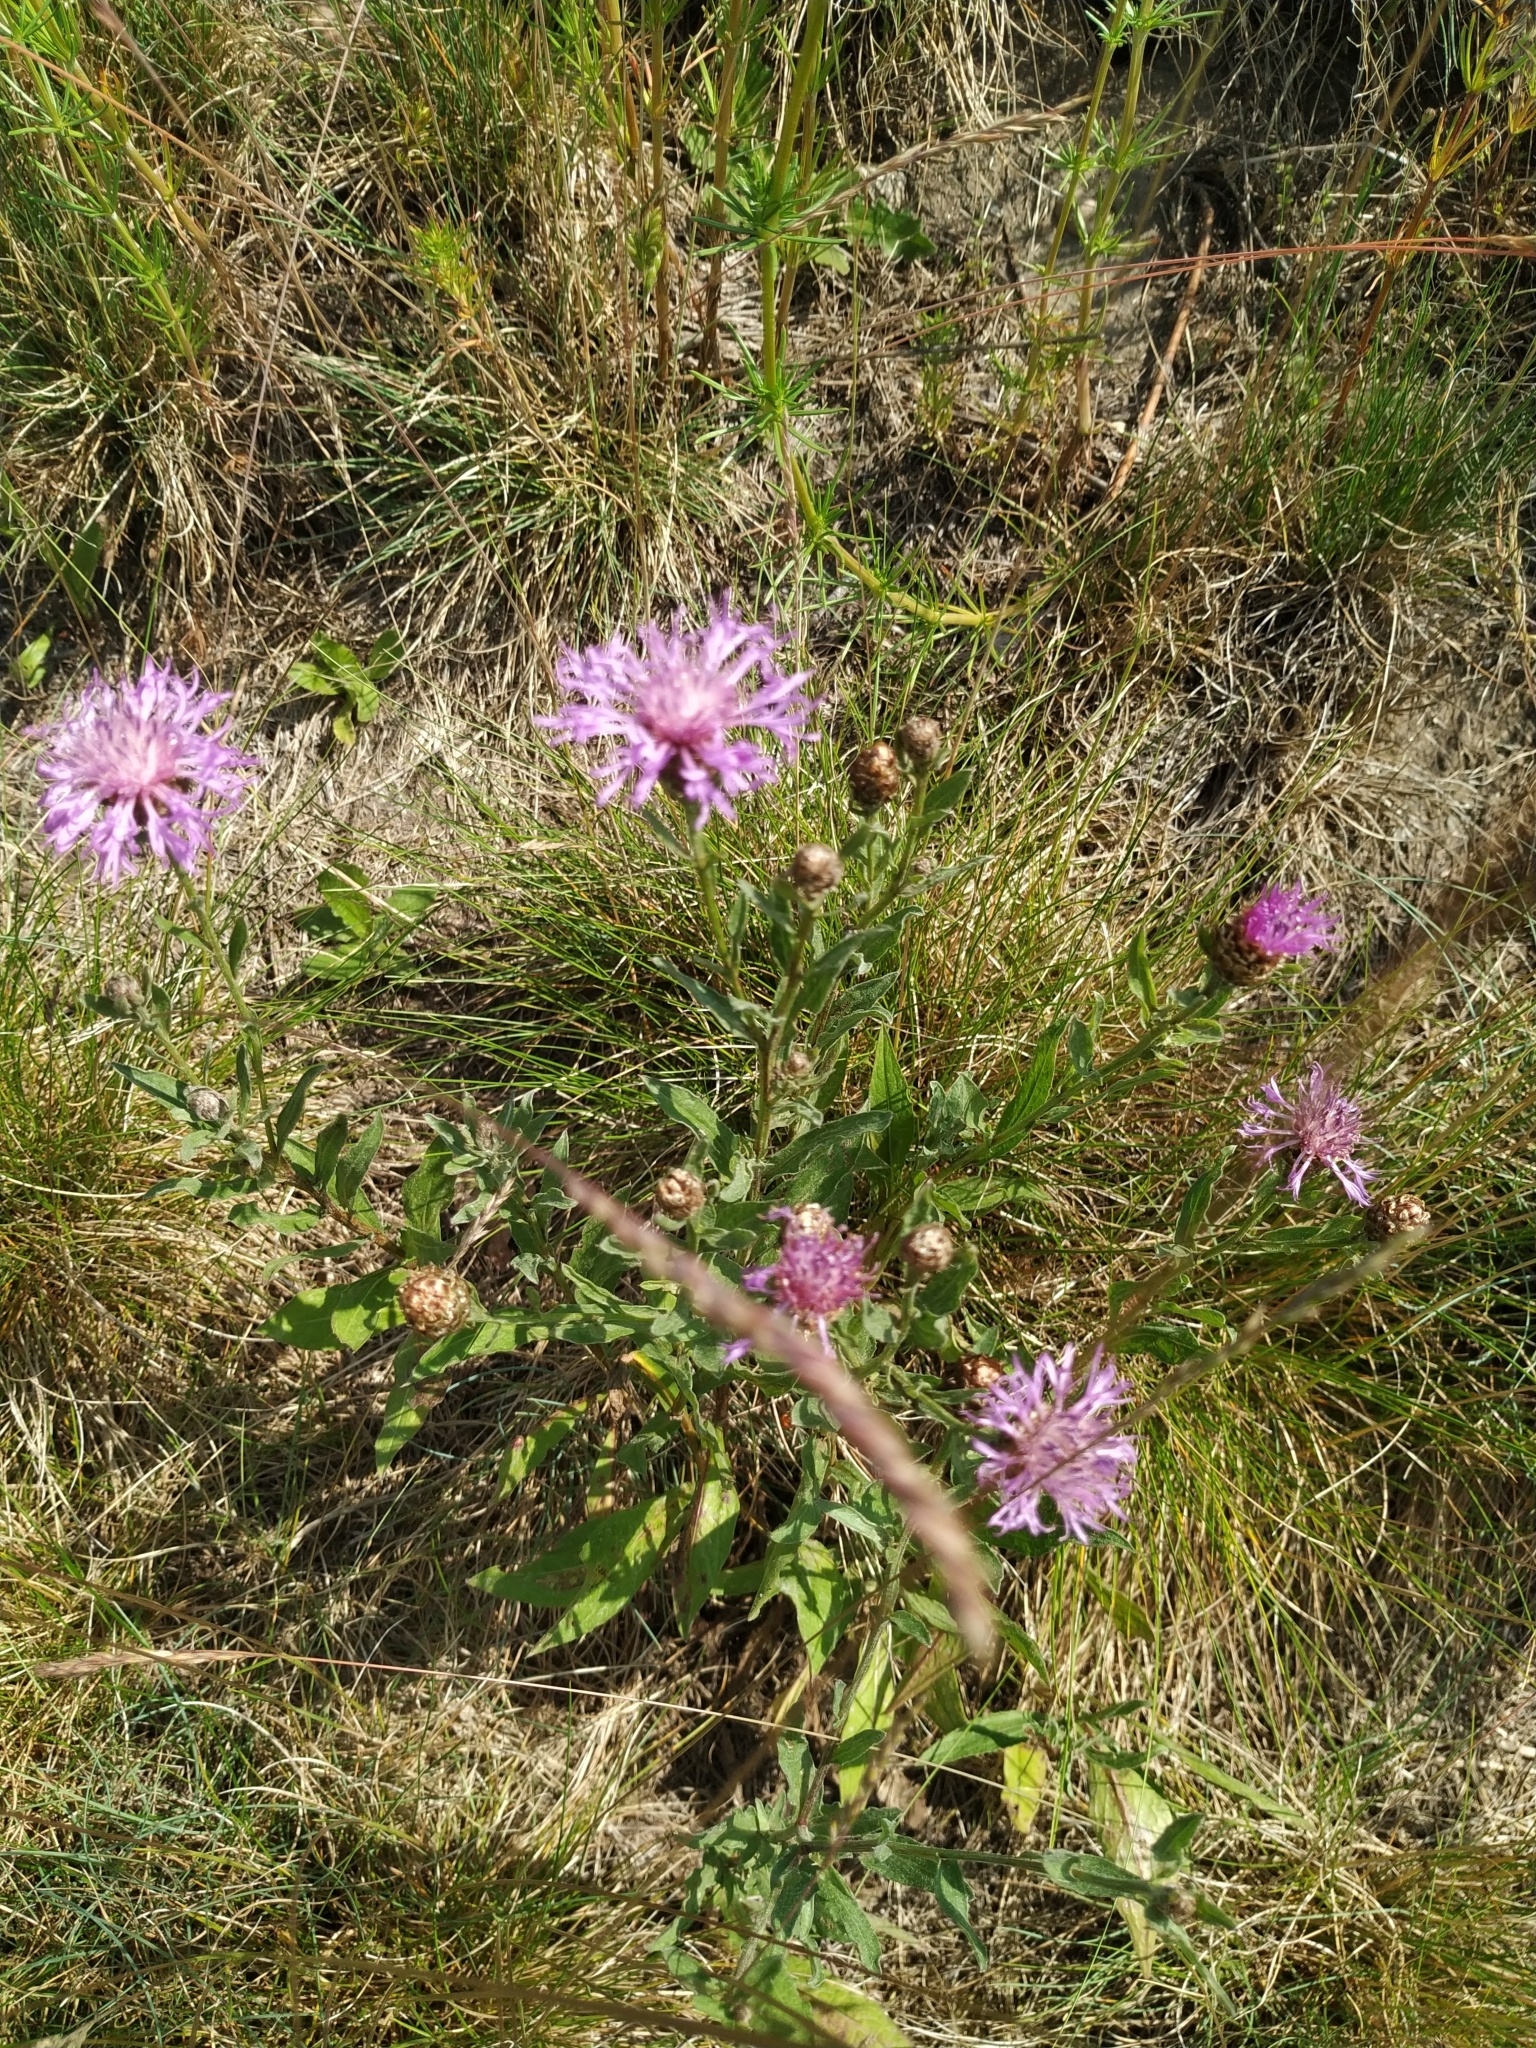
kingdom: Plantae
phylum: Tracheophyta
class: Magnoliopsida
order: Asterales
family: Asteraceae
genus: Centaurea
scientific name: Centaurea jacea
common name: Brown knapweed
